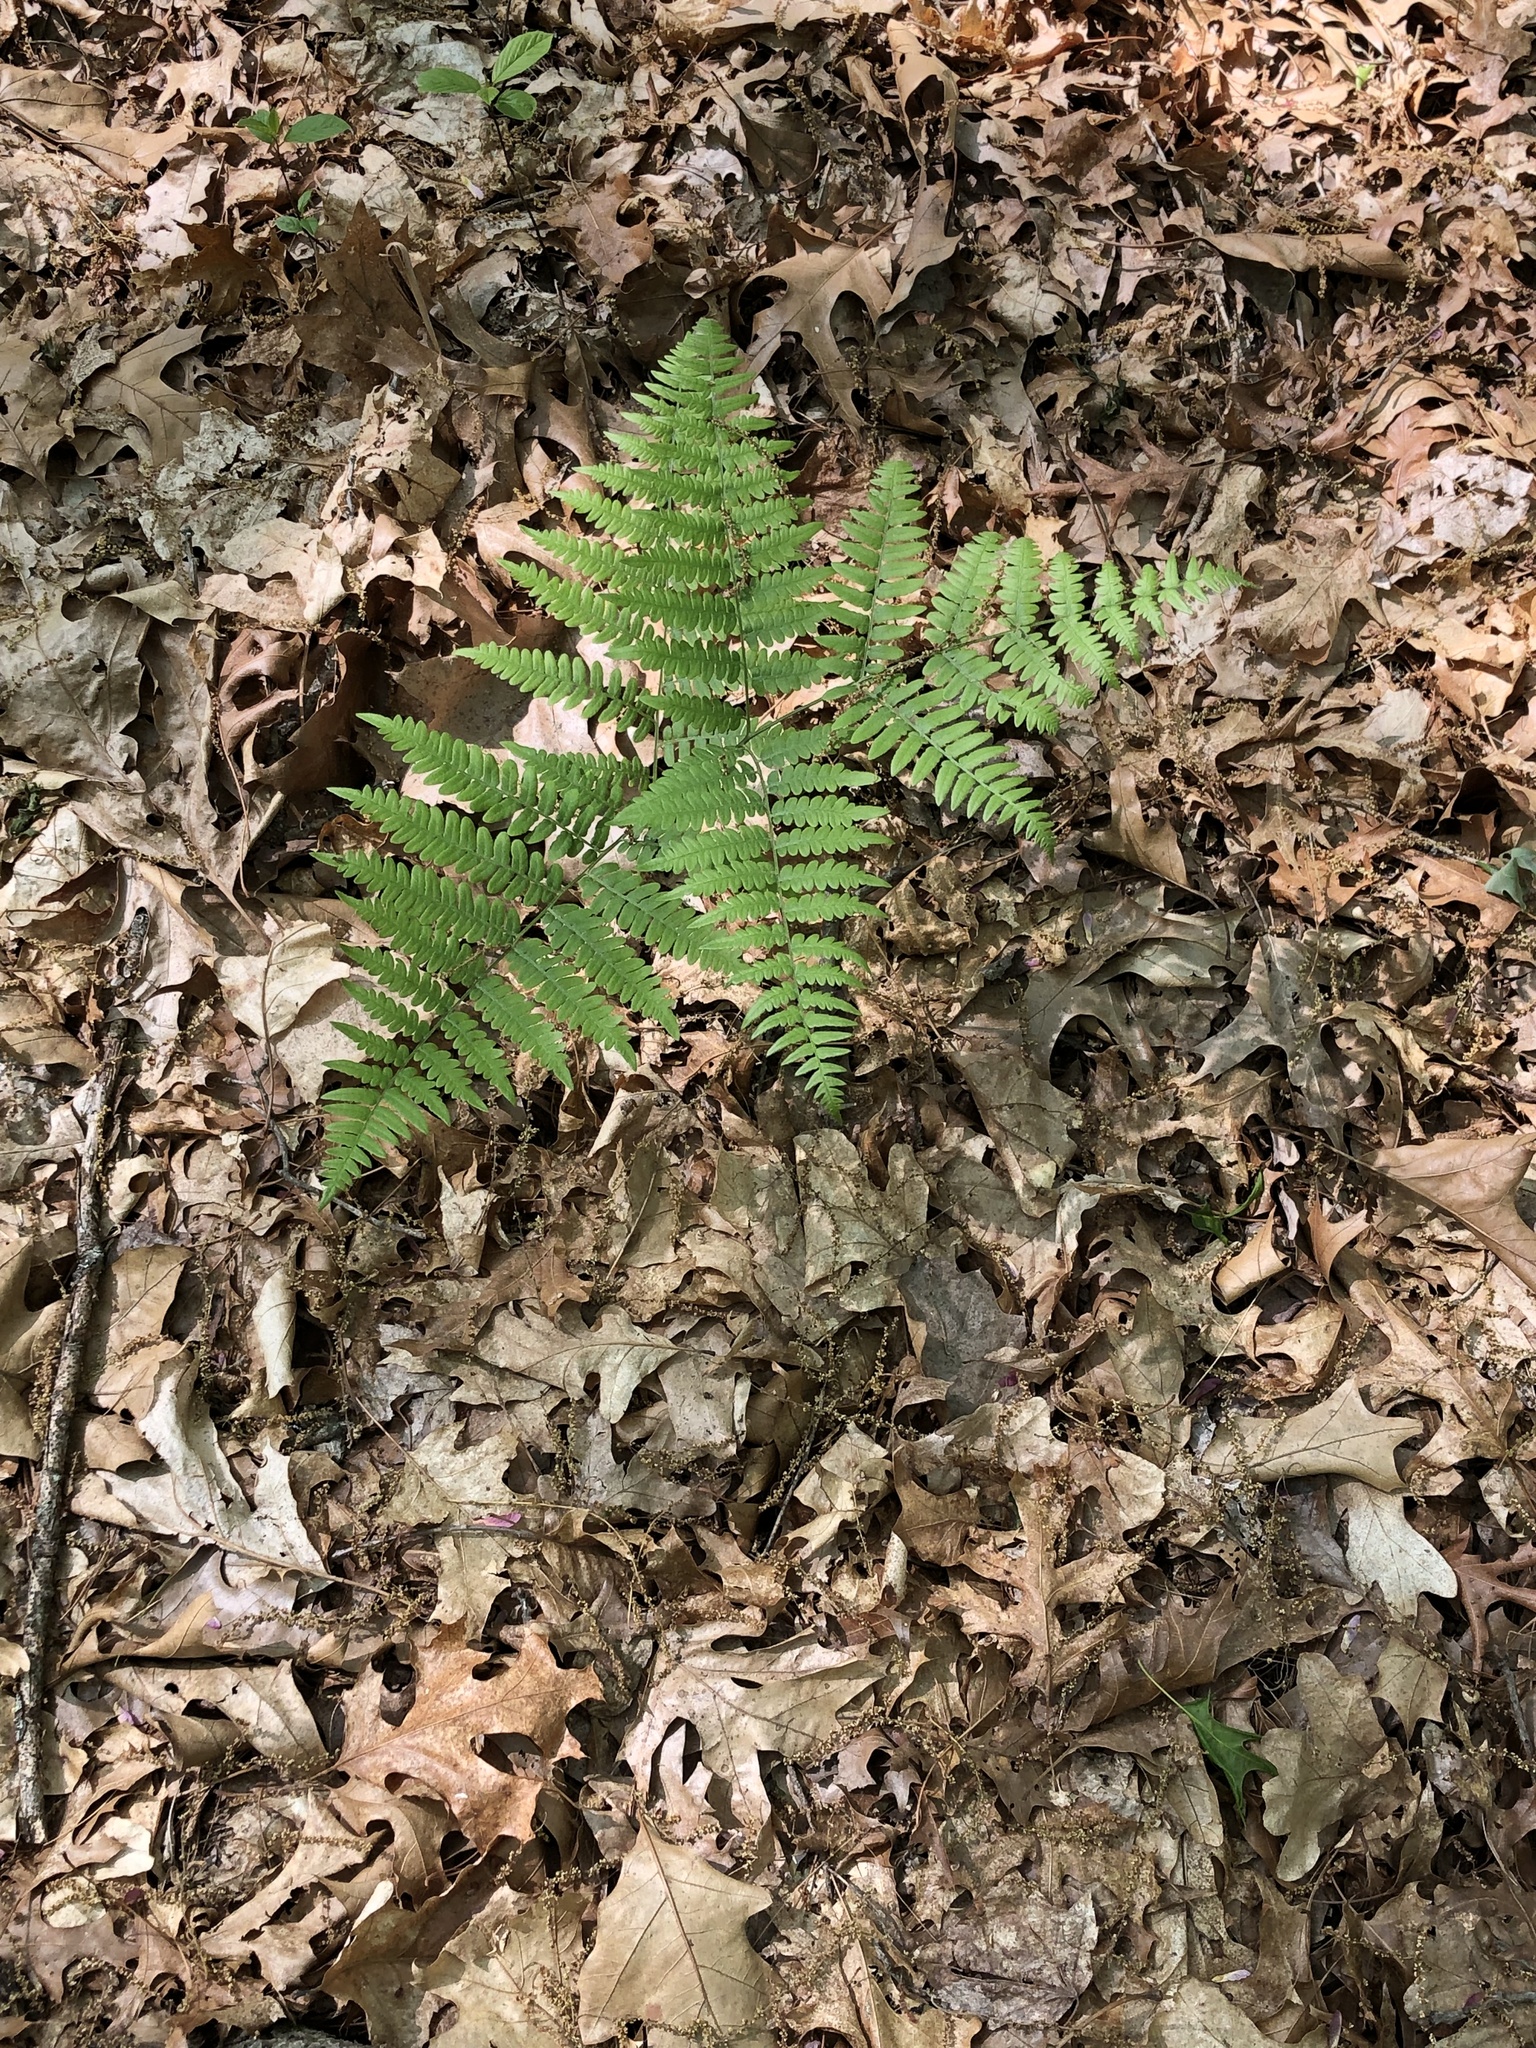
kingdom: Plantae
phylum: Tracheophyta
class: Polypodiopsida
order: Polypodiales
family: Dennstaedtiaceae
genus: Pteridium
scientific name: Pteridium aquilinum
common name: Bracken
